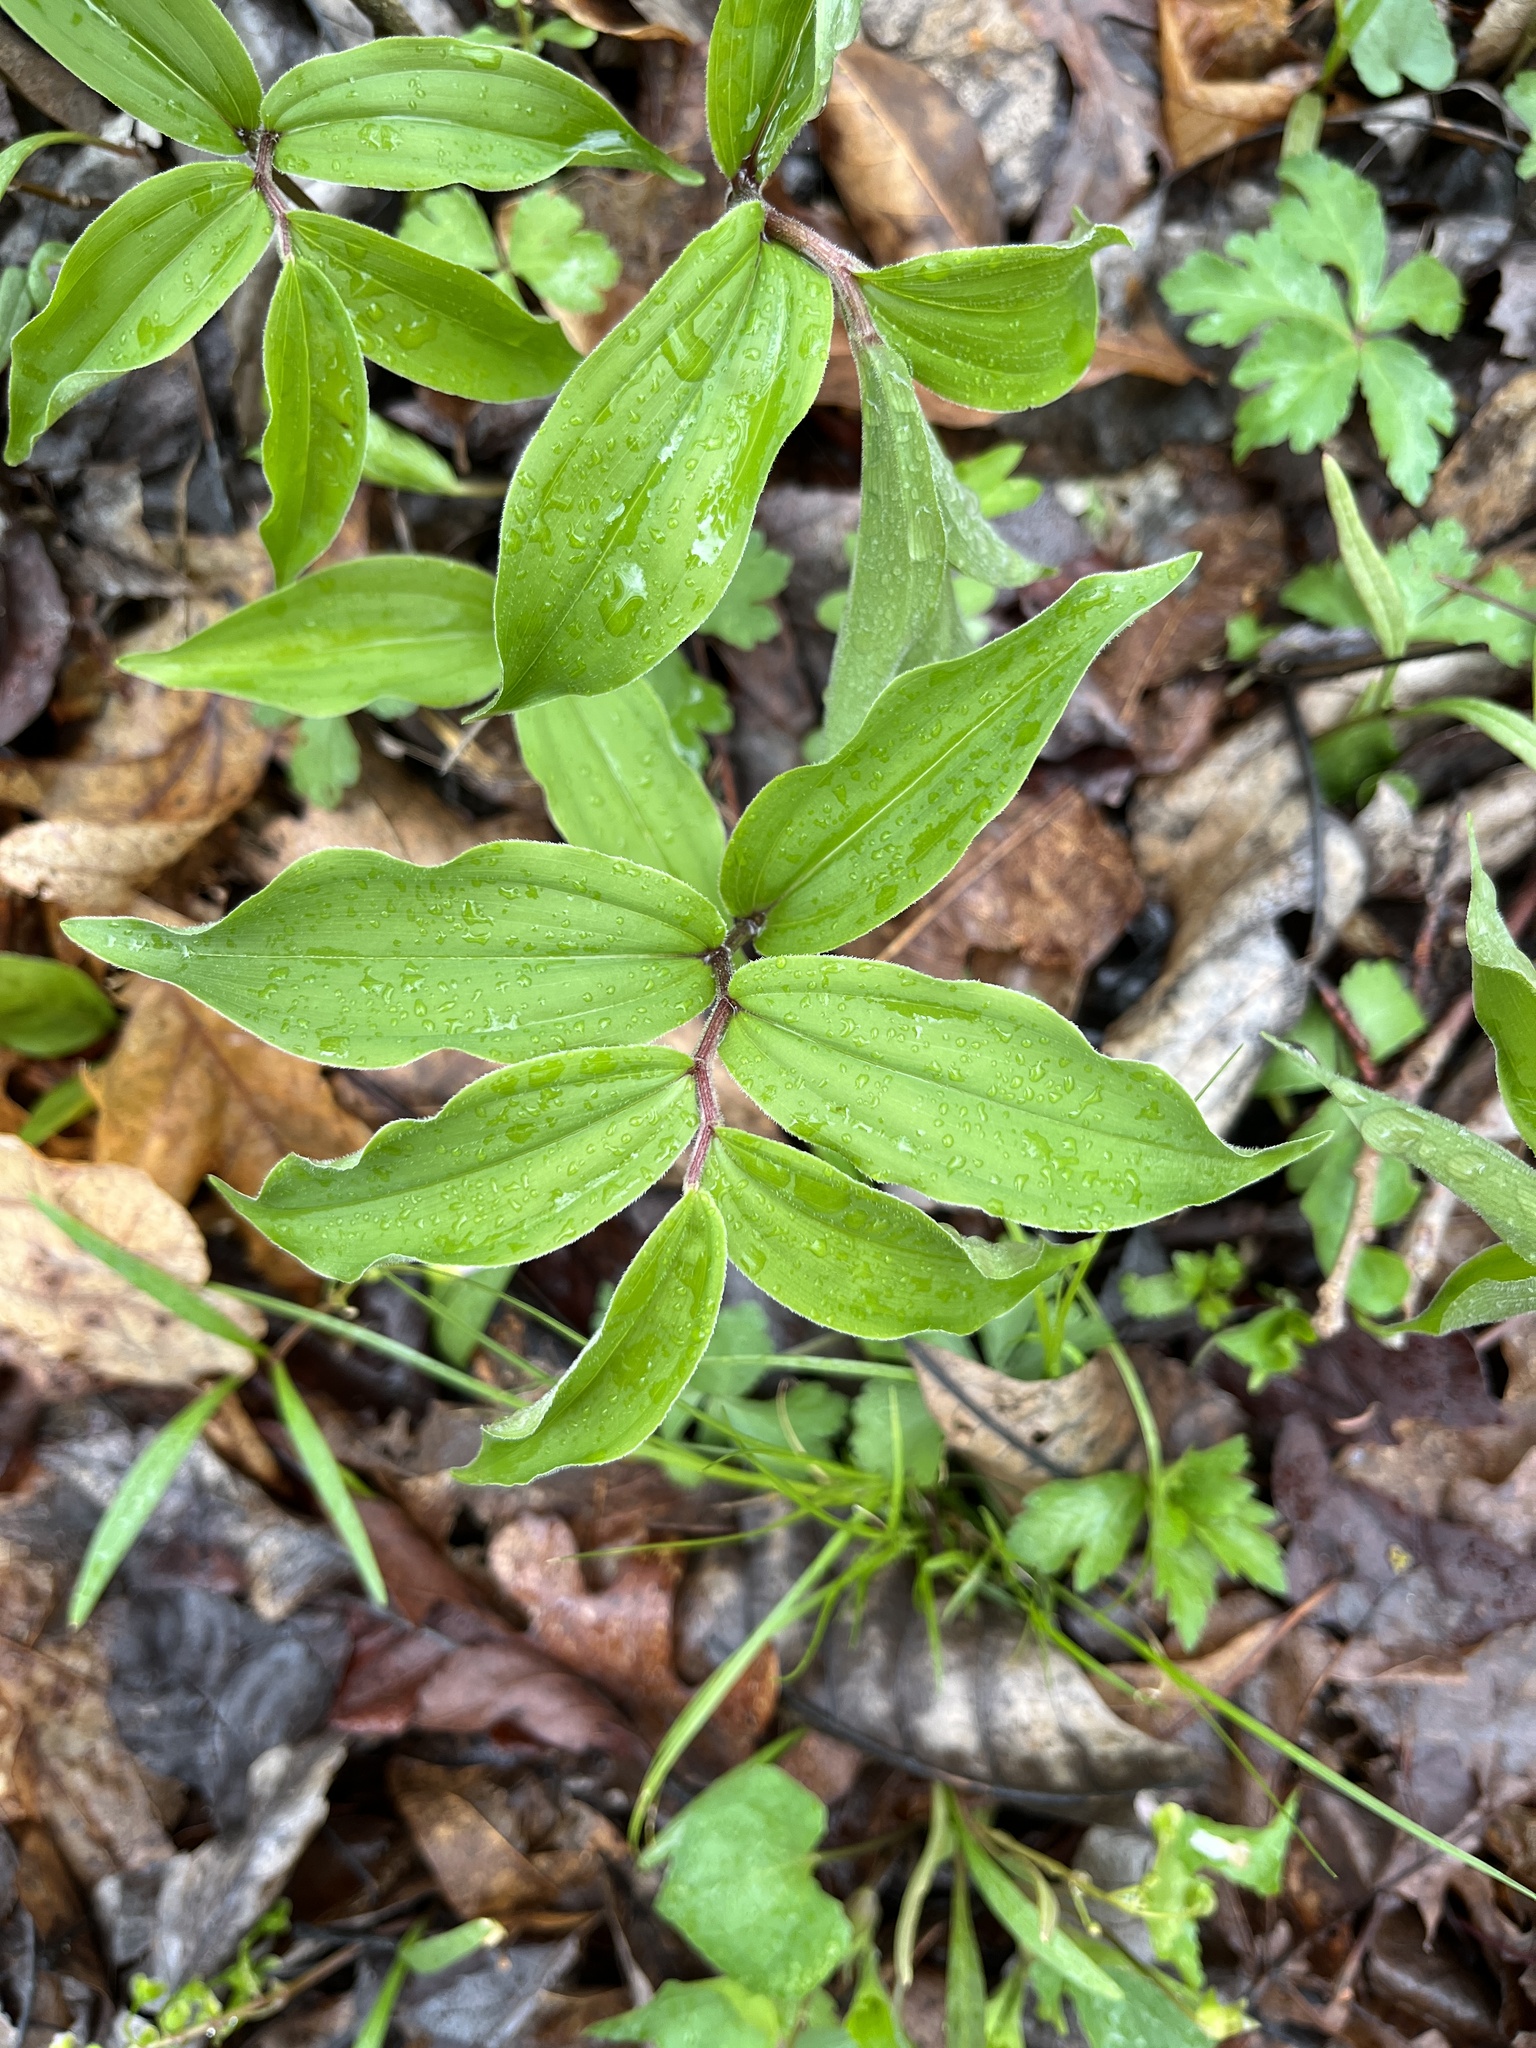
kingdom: Plantae
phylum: Tracheophyta
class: Liliopsida
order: Asparagales
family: Asparagaceae
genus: Maianthemum
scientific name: Maianthemum racemosum
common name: False spikenard
